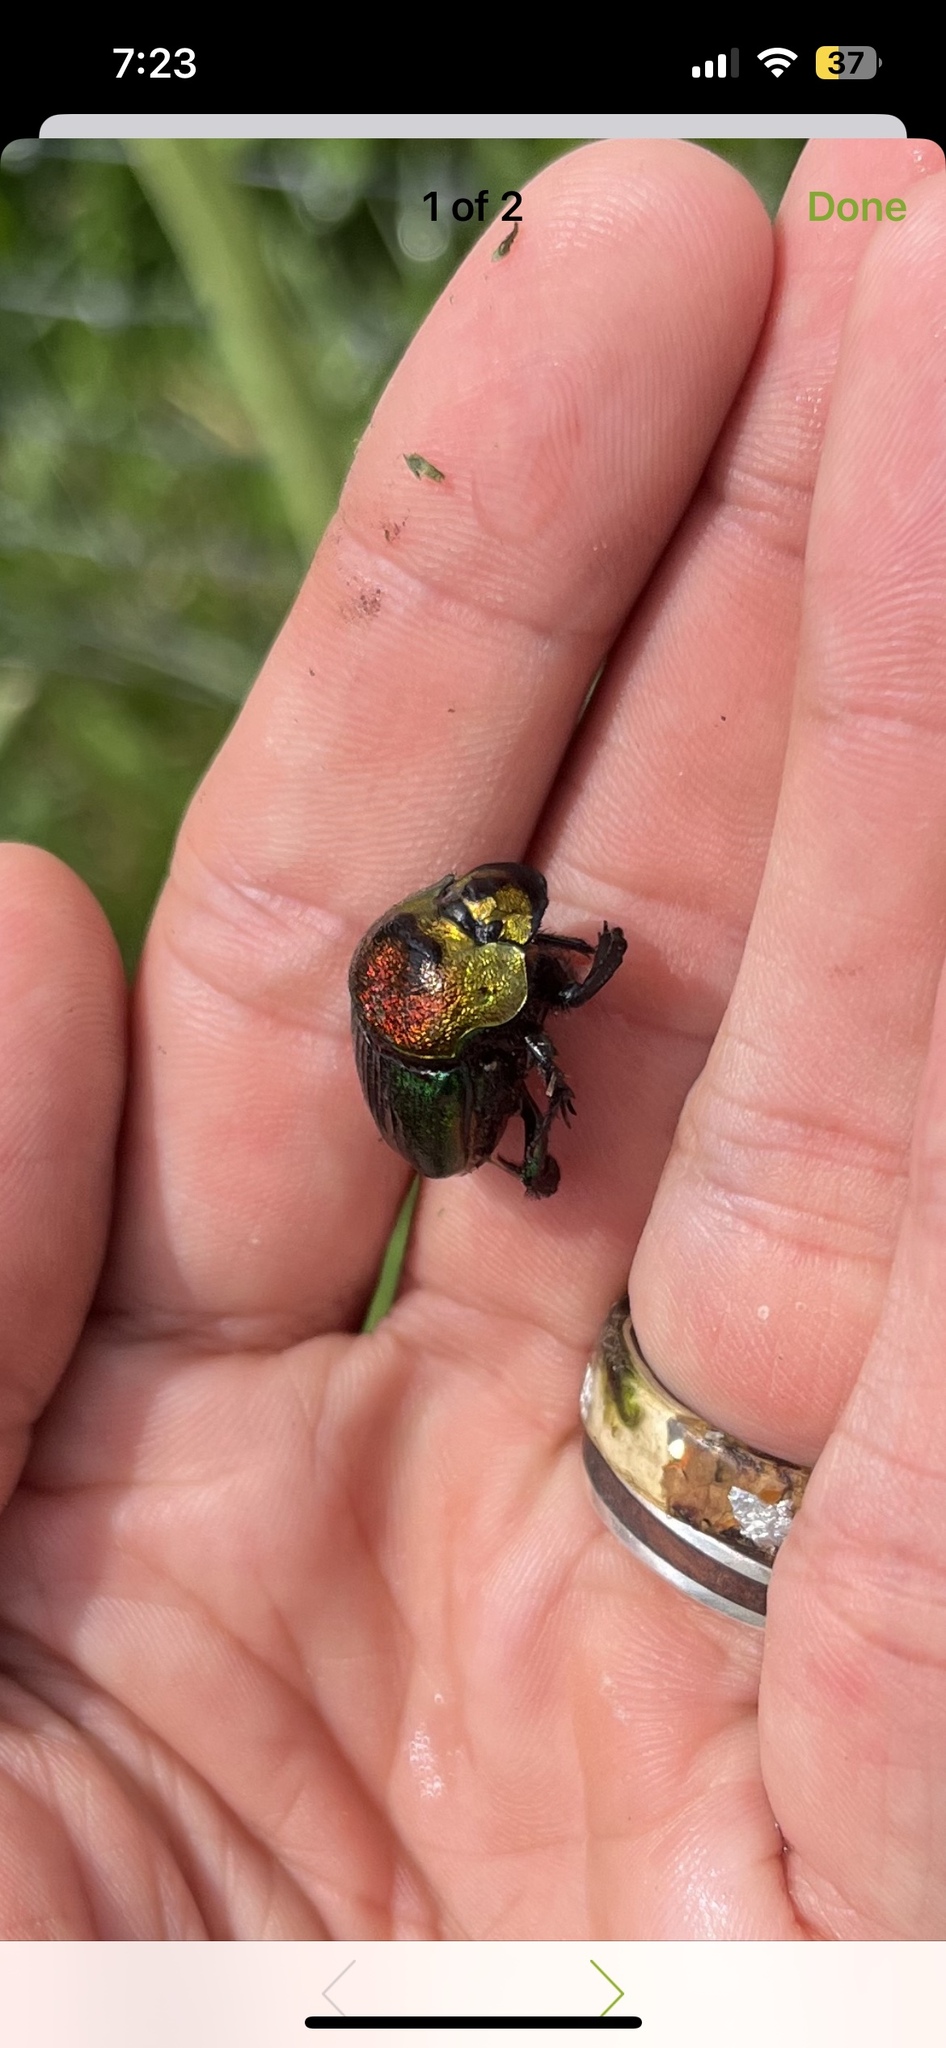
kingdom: Animalia
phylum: Arthropoda
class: Insecta
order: Coleoptera
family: Scarabaeidae
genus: Phanaeus
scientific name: Phanaeus vindex
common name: Rainbow scarab
